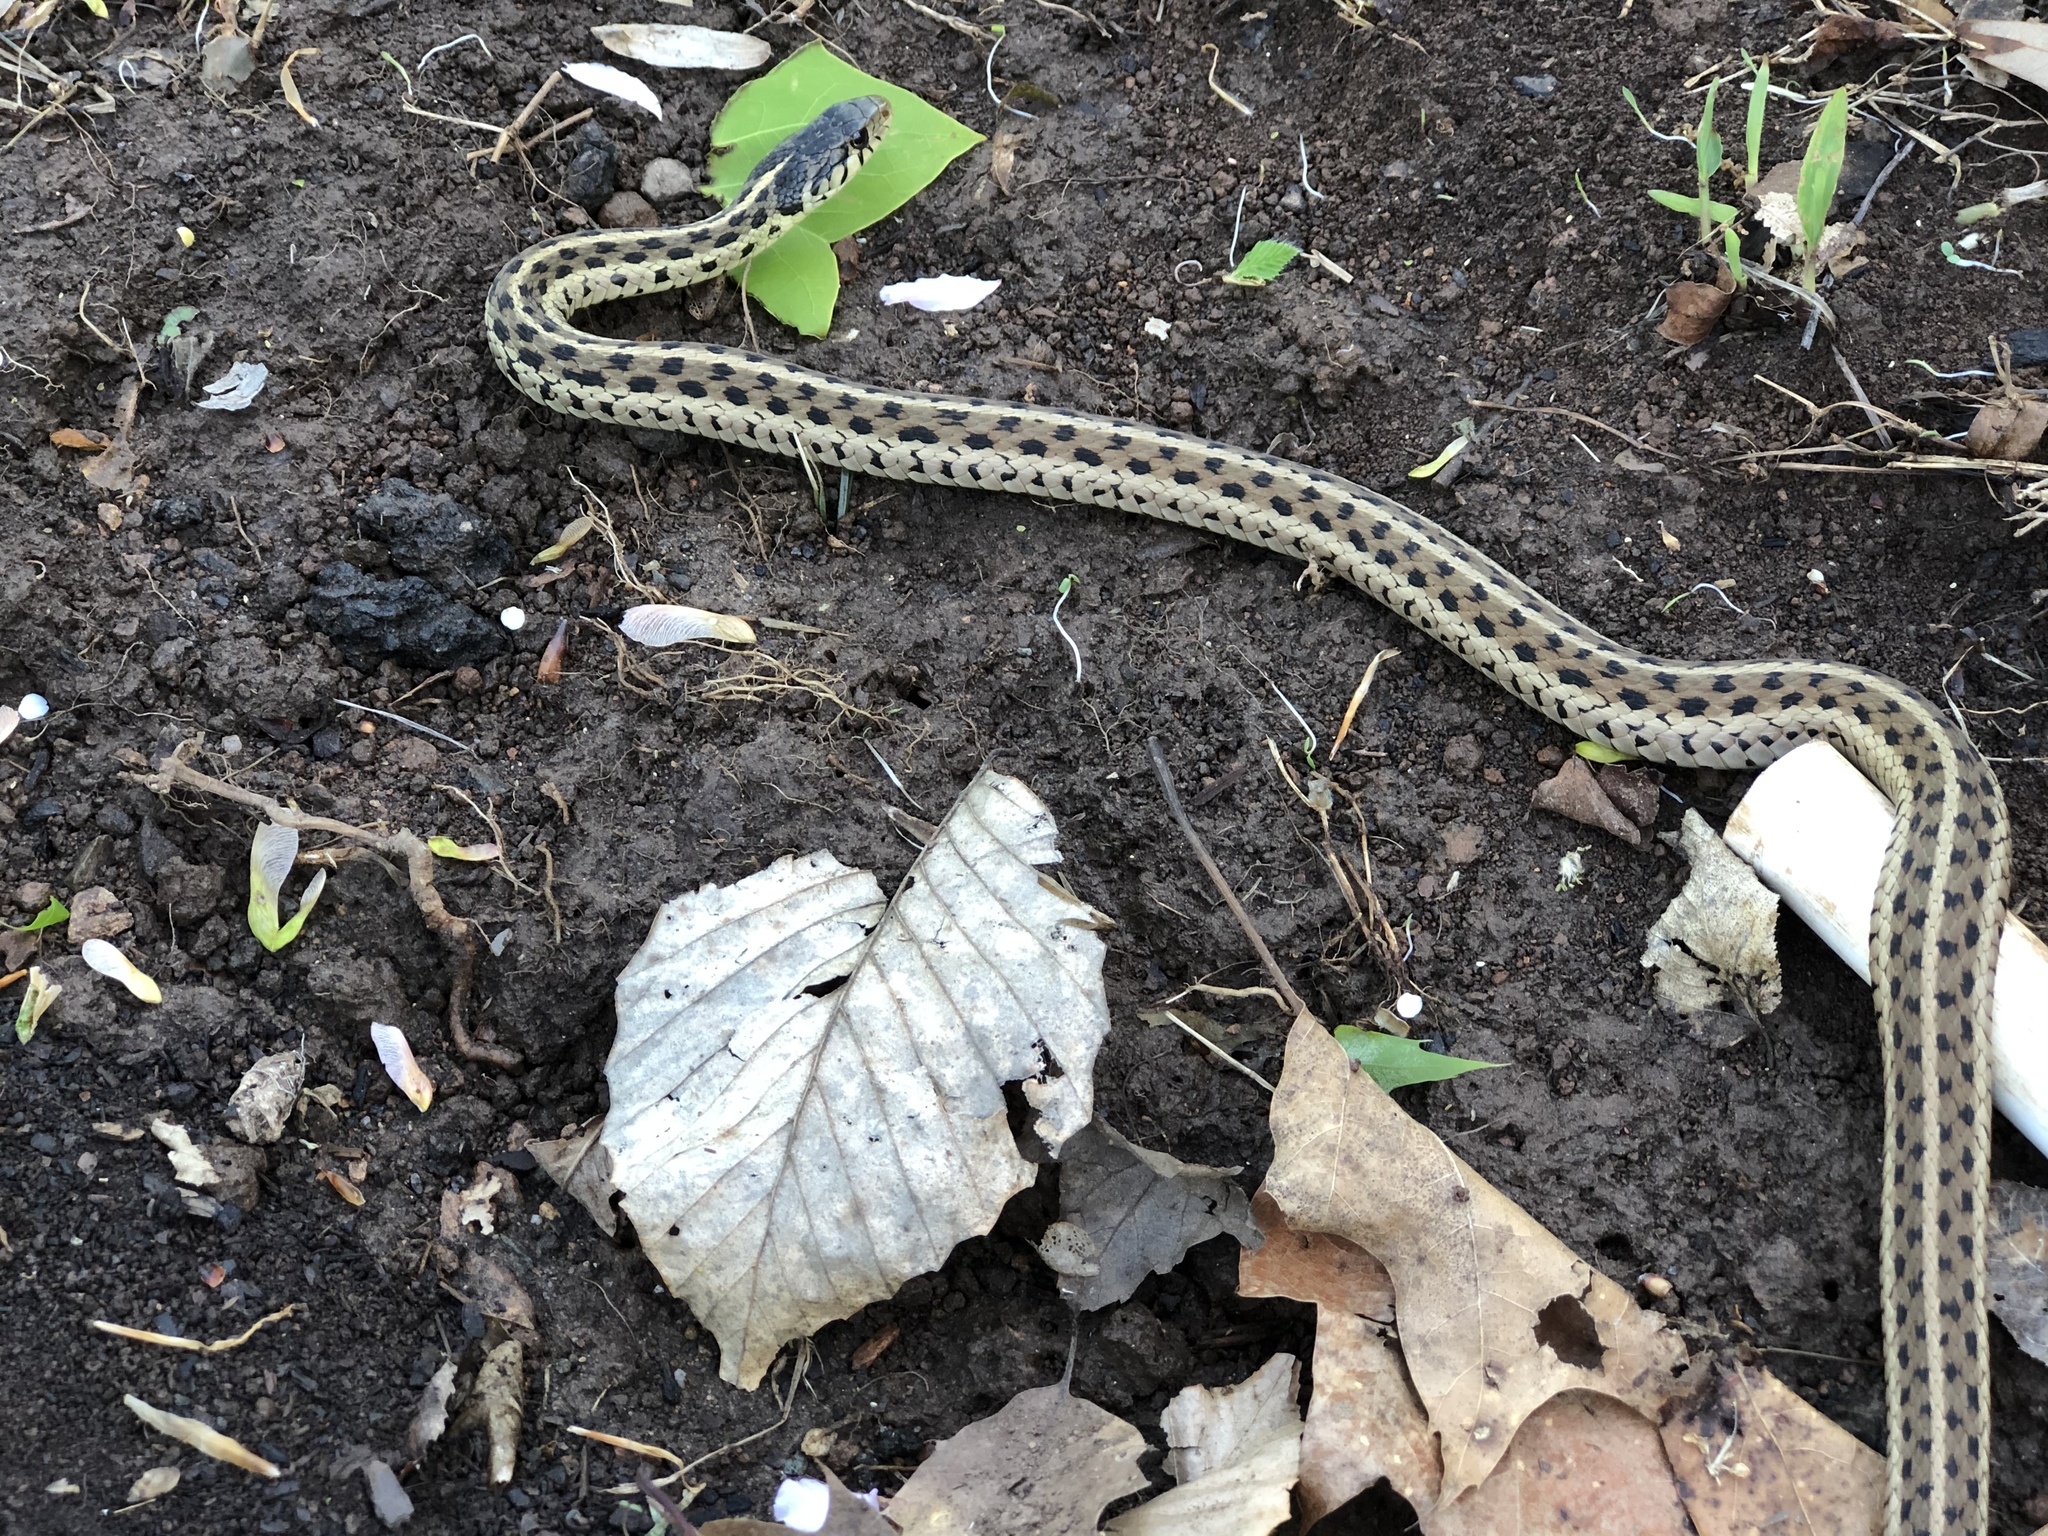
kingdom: Animalia
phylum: Chordata
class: Squamata
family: Colubridae
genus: Thamnophis
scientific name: Thamnophis sirtalis
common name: Common garter snake
